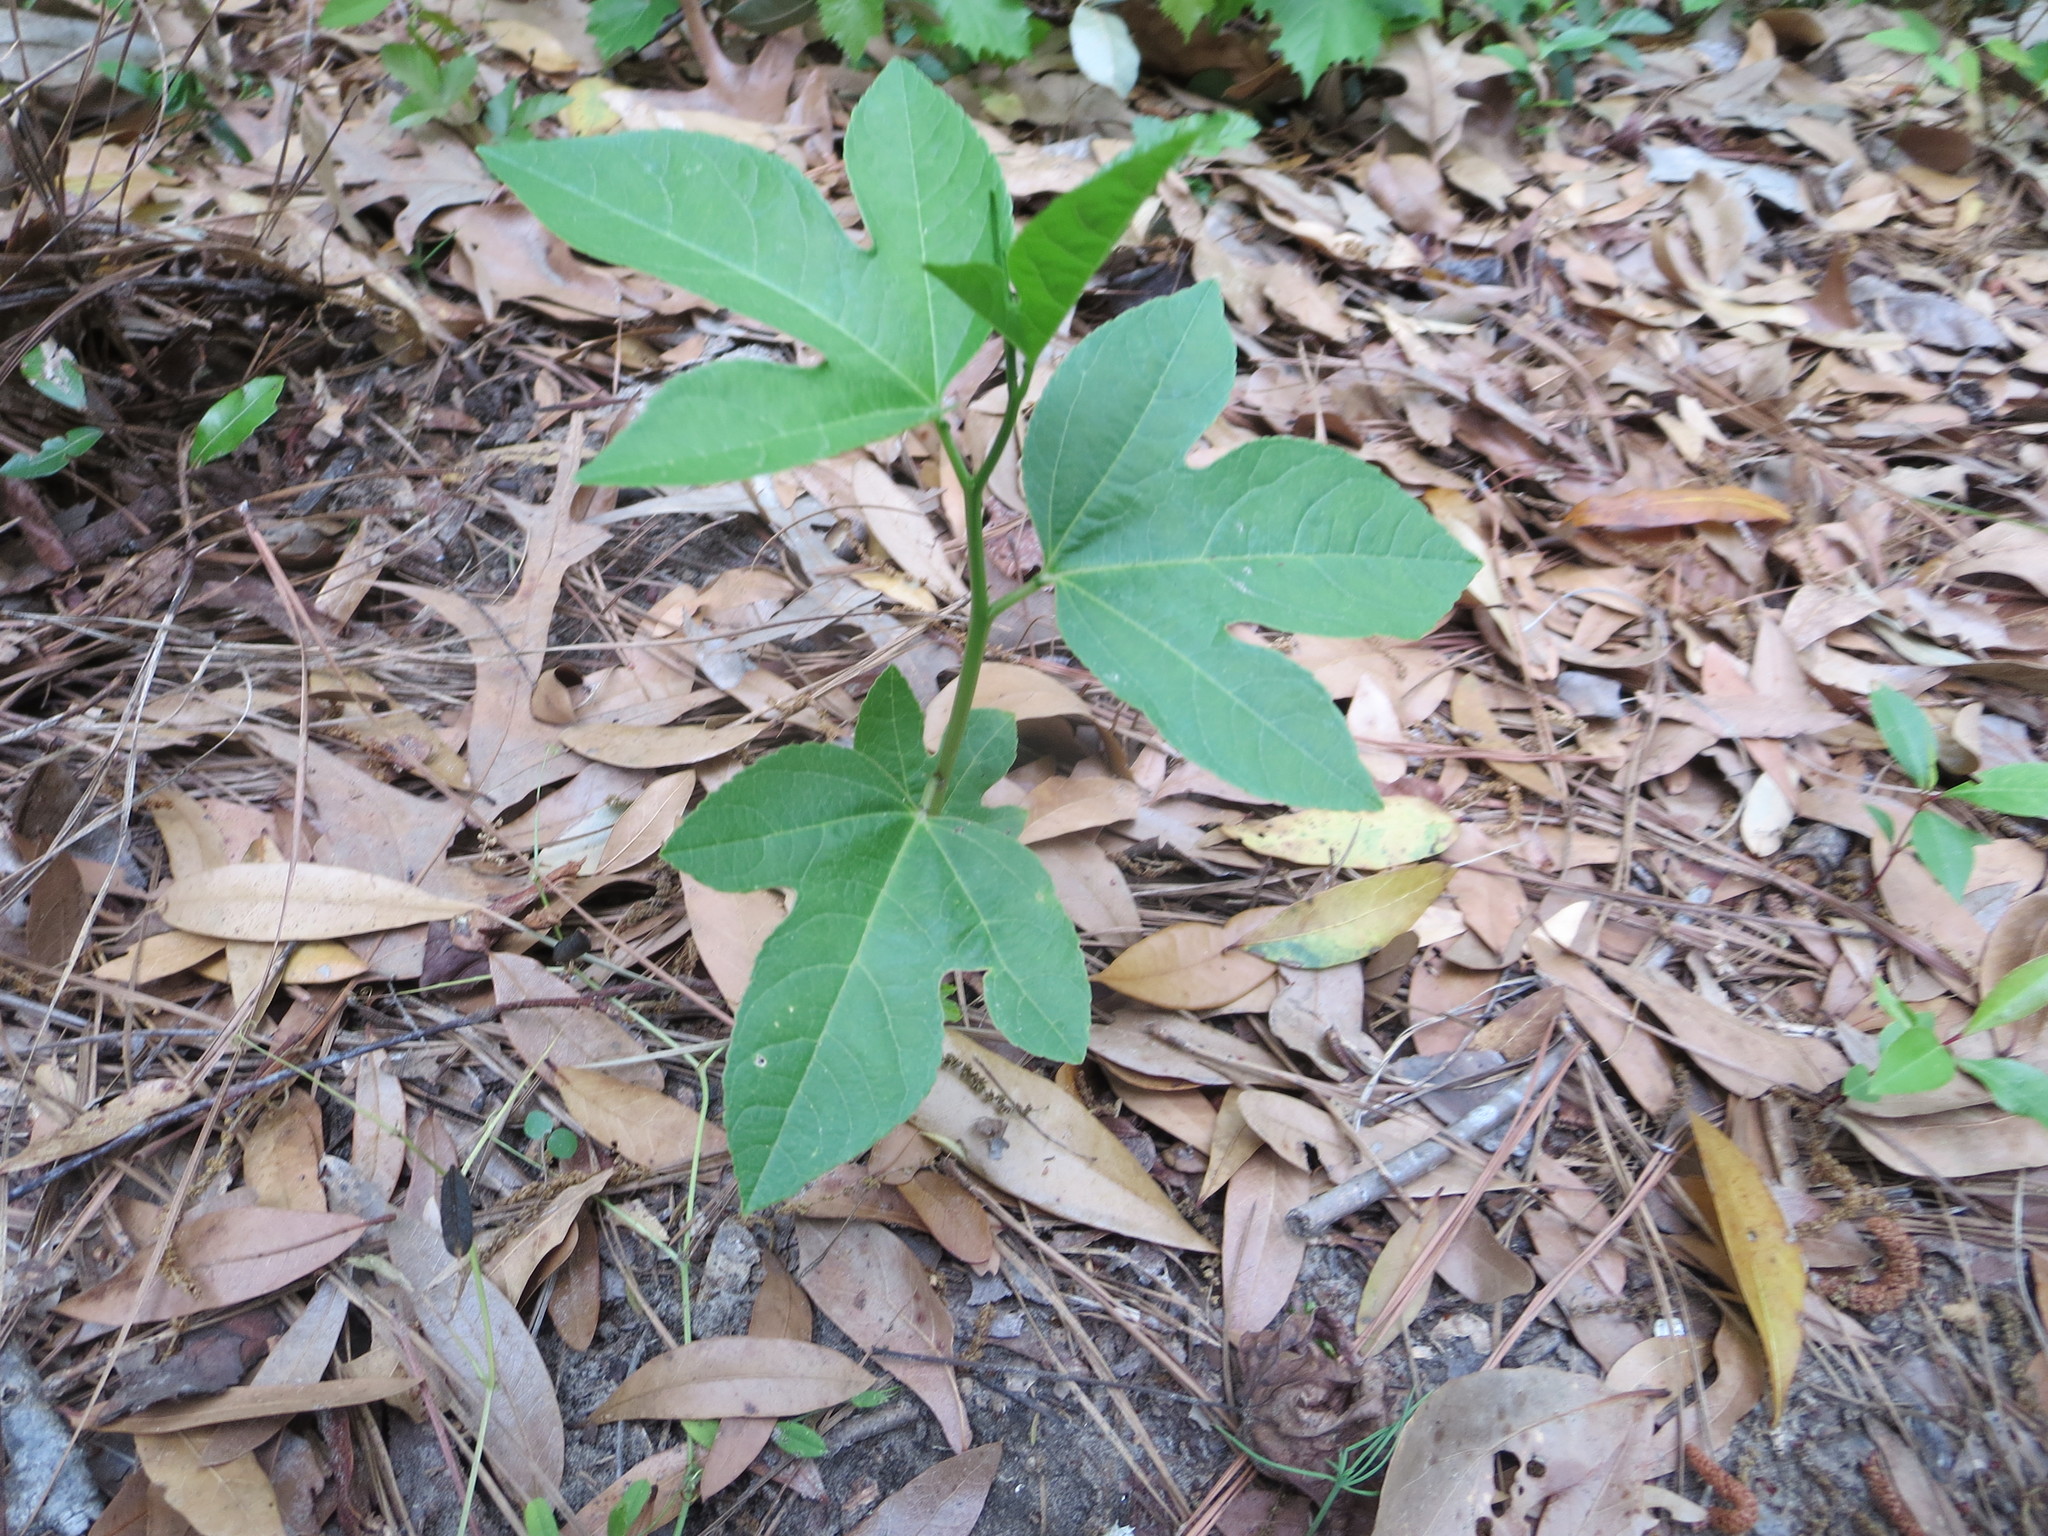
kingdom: Plantae
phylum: Tracheophyta
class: Magnoliopsida
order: Malpighiales
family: Passifloraceae
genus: Passiflora
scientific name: Passiflora incarnata
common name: Apricot-vine
